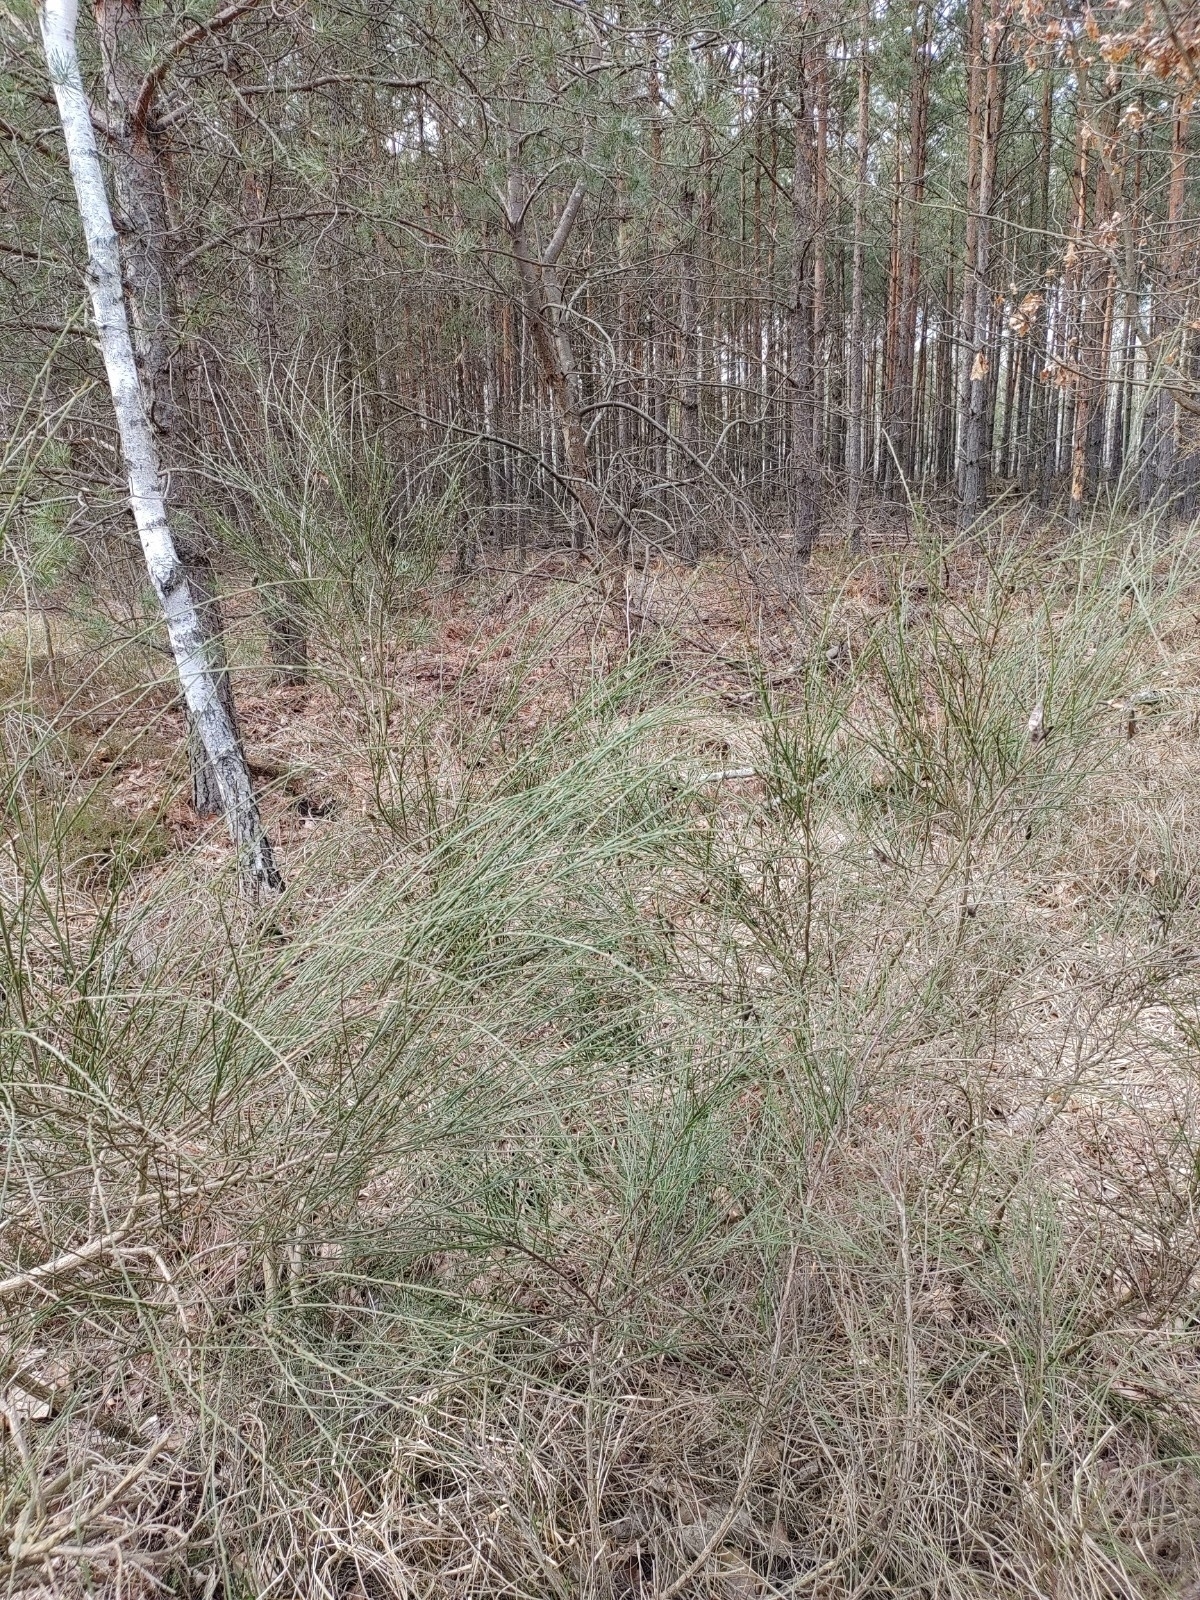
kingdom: Plantae
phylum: Tracheophyta
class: Magnoliopsida
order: Fabales
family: Fabaceae
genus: Cytisus
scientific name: Cytisus scoparius
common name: Scotch broom
